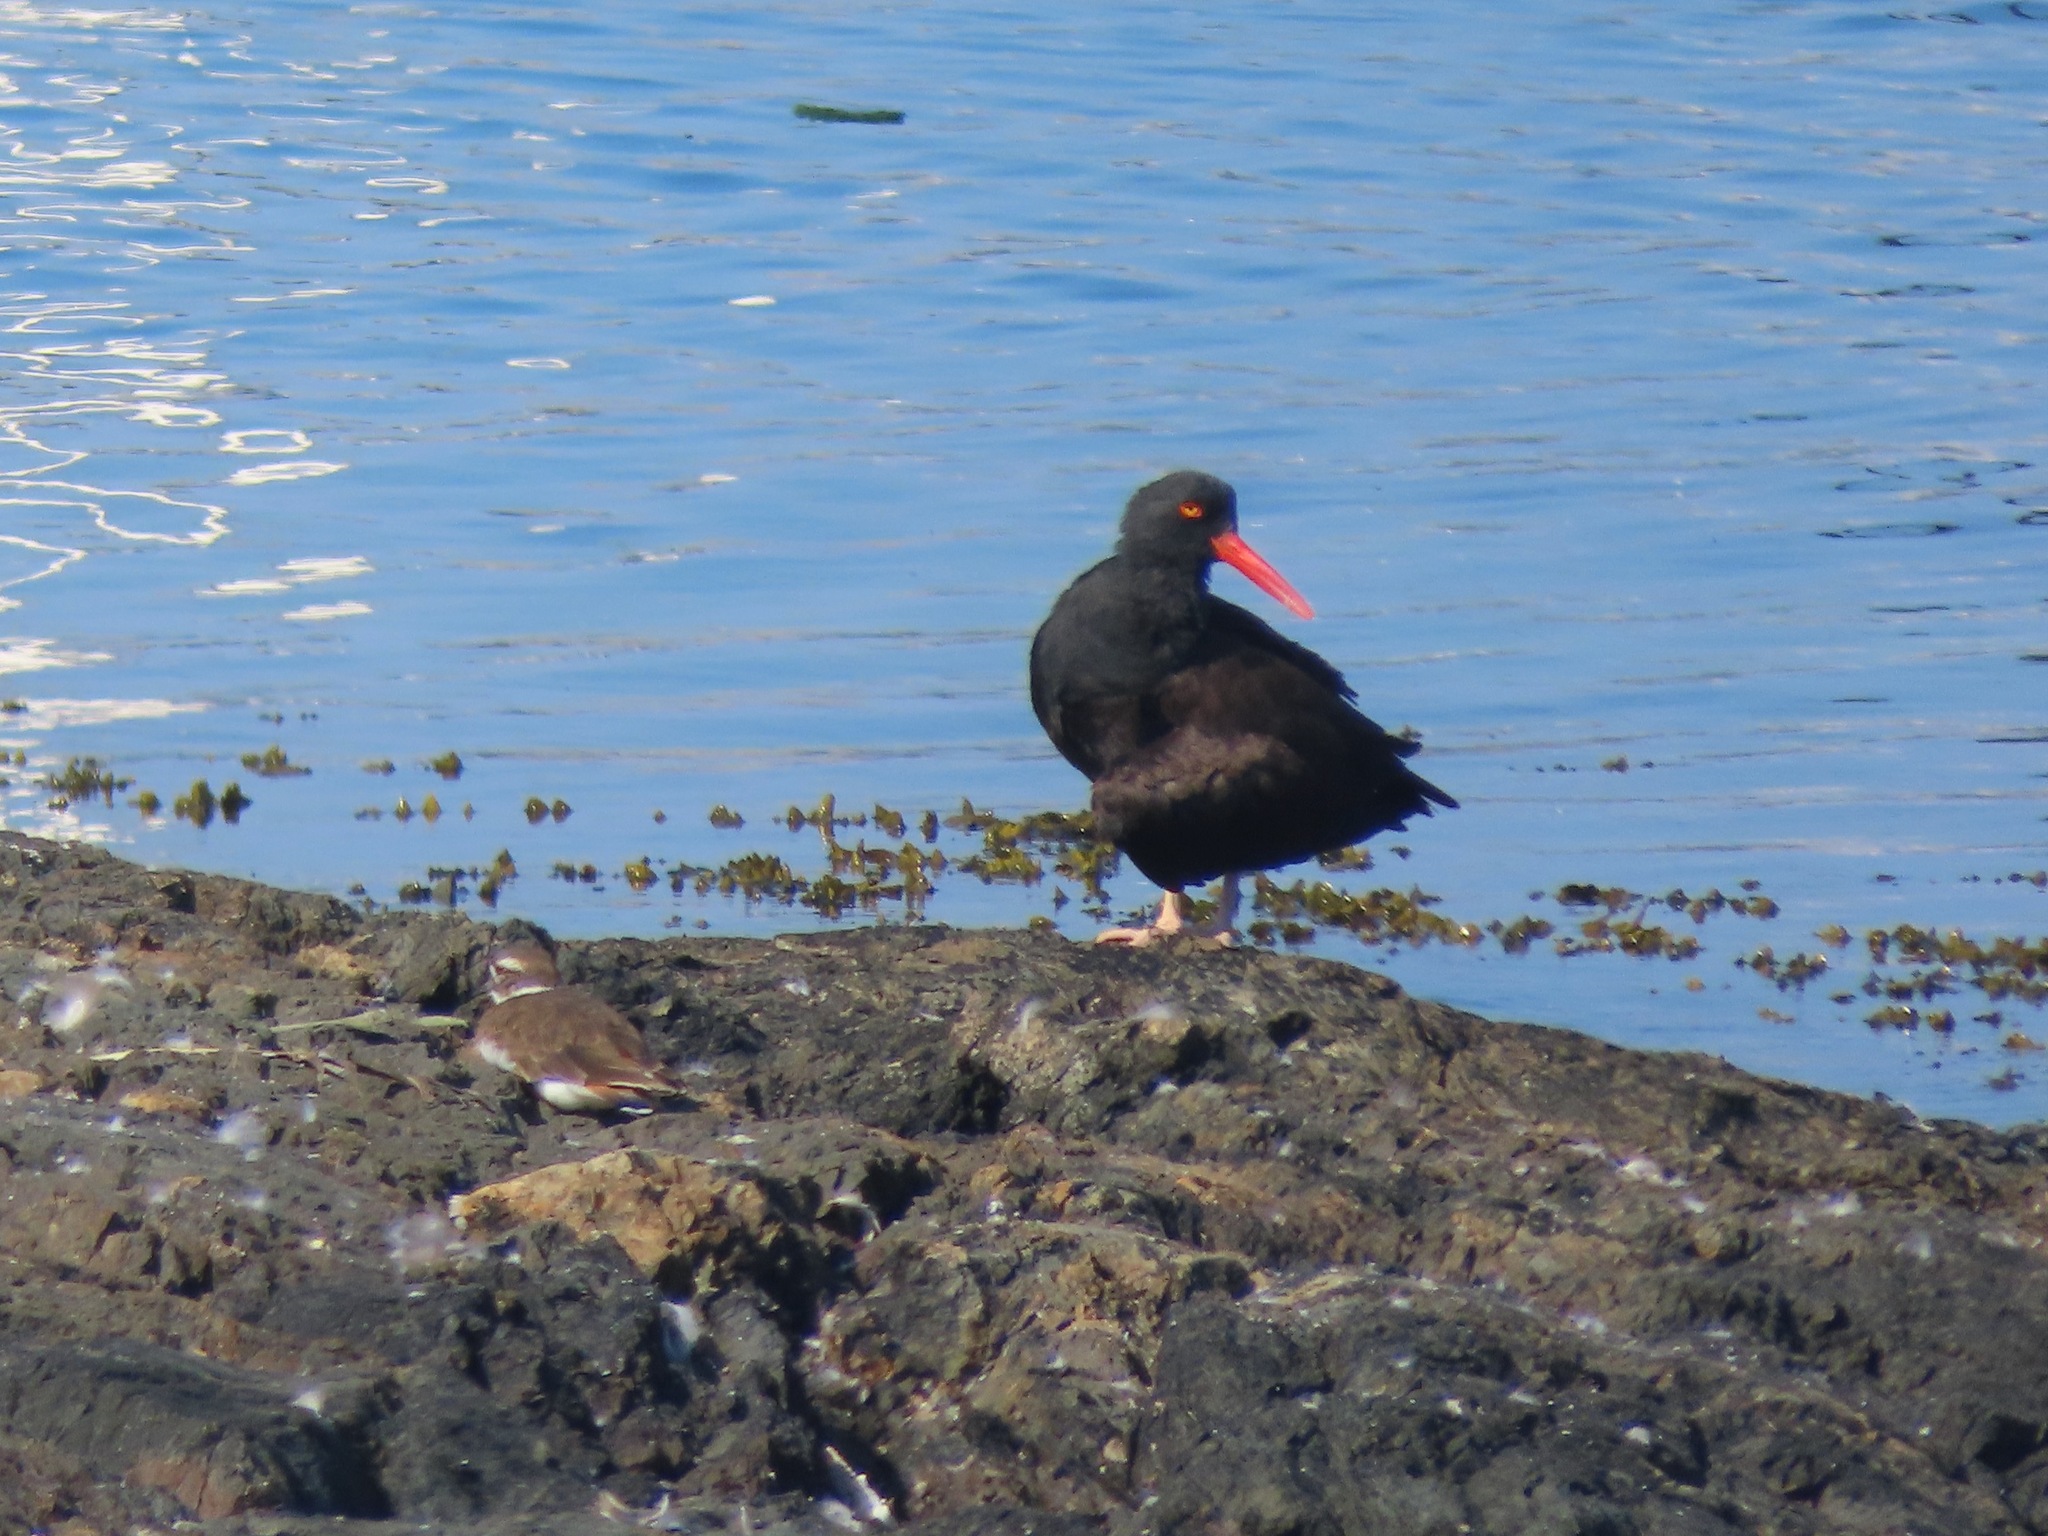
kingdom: Animalia
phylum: Chordata
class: Aves
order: Charadriiformes
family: Haematopodidae
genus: Haematopus
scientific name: Haematopus bachmani
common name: Black oystercatcher
